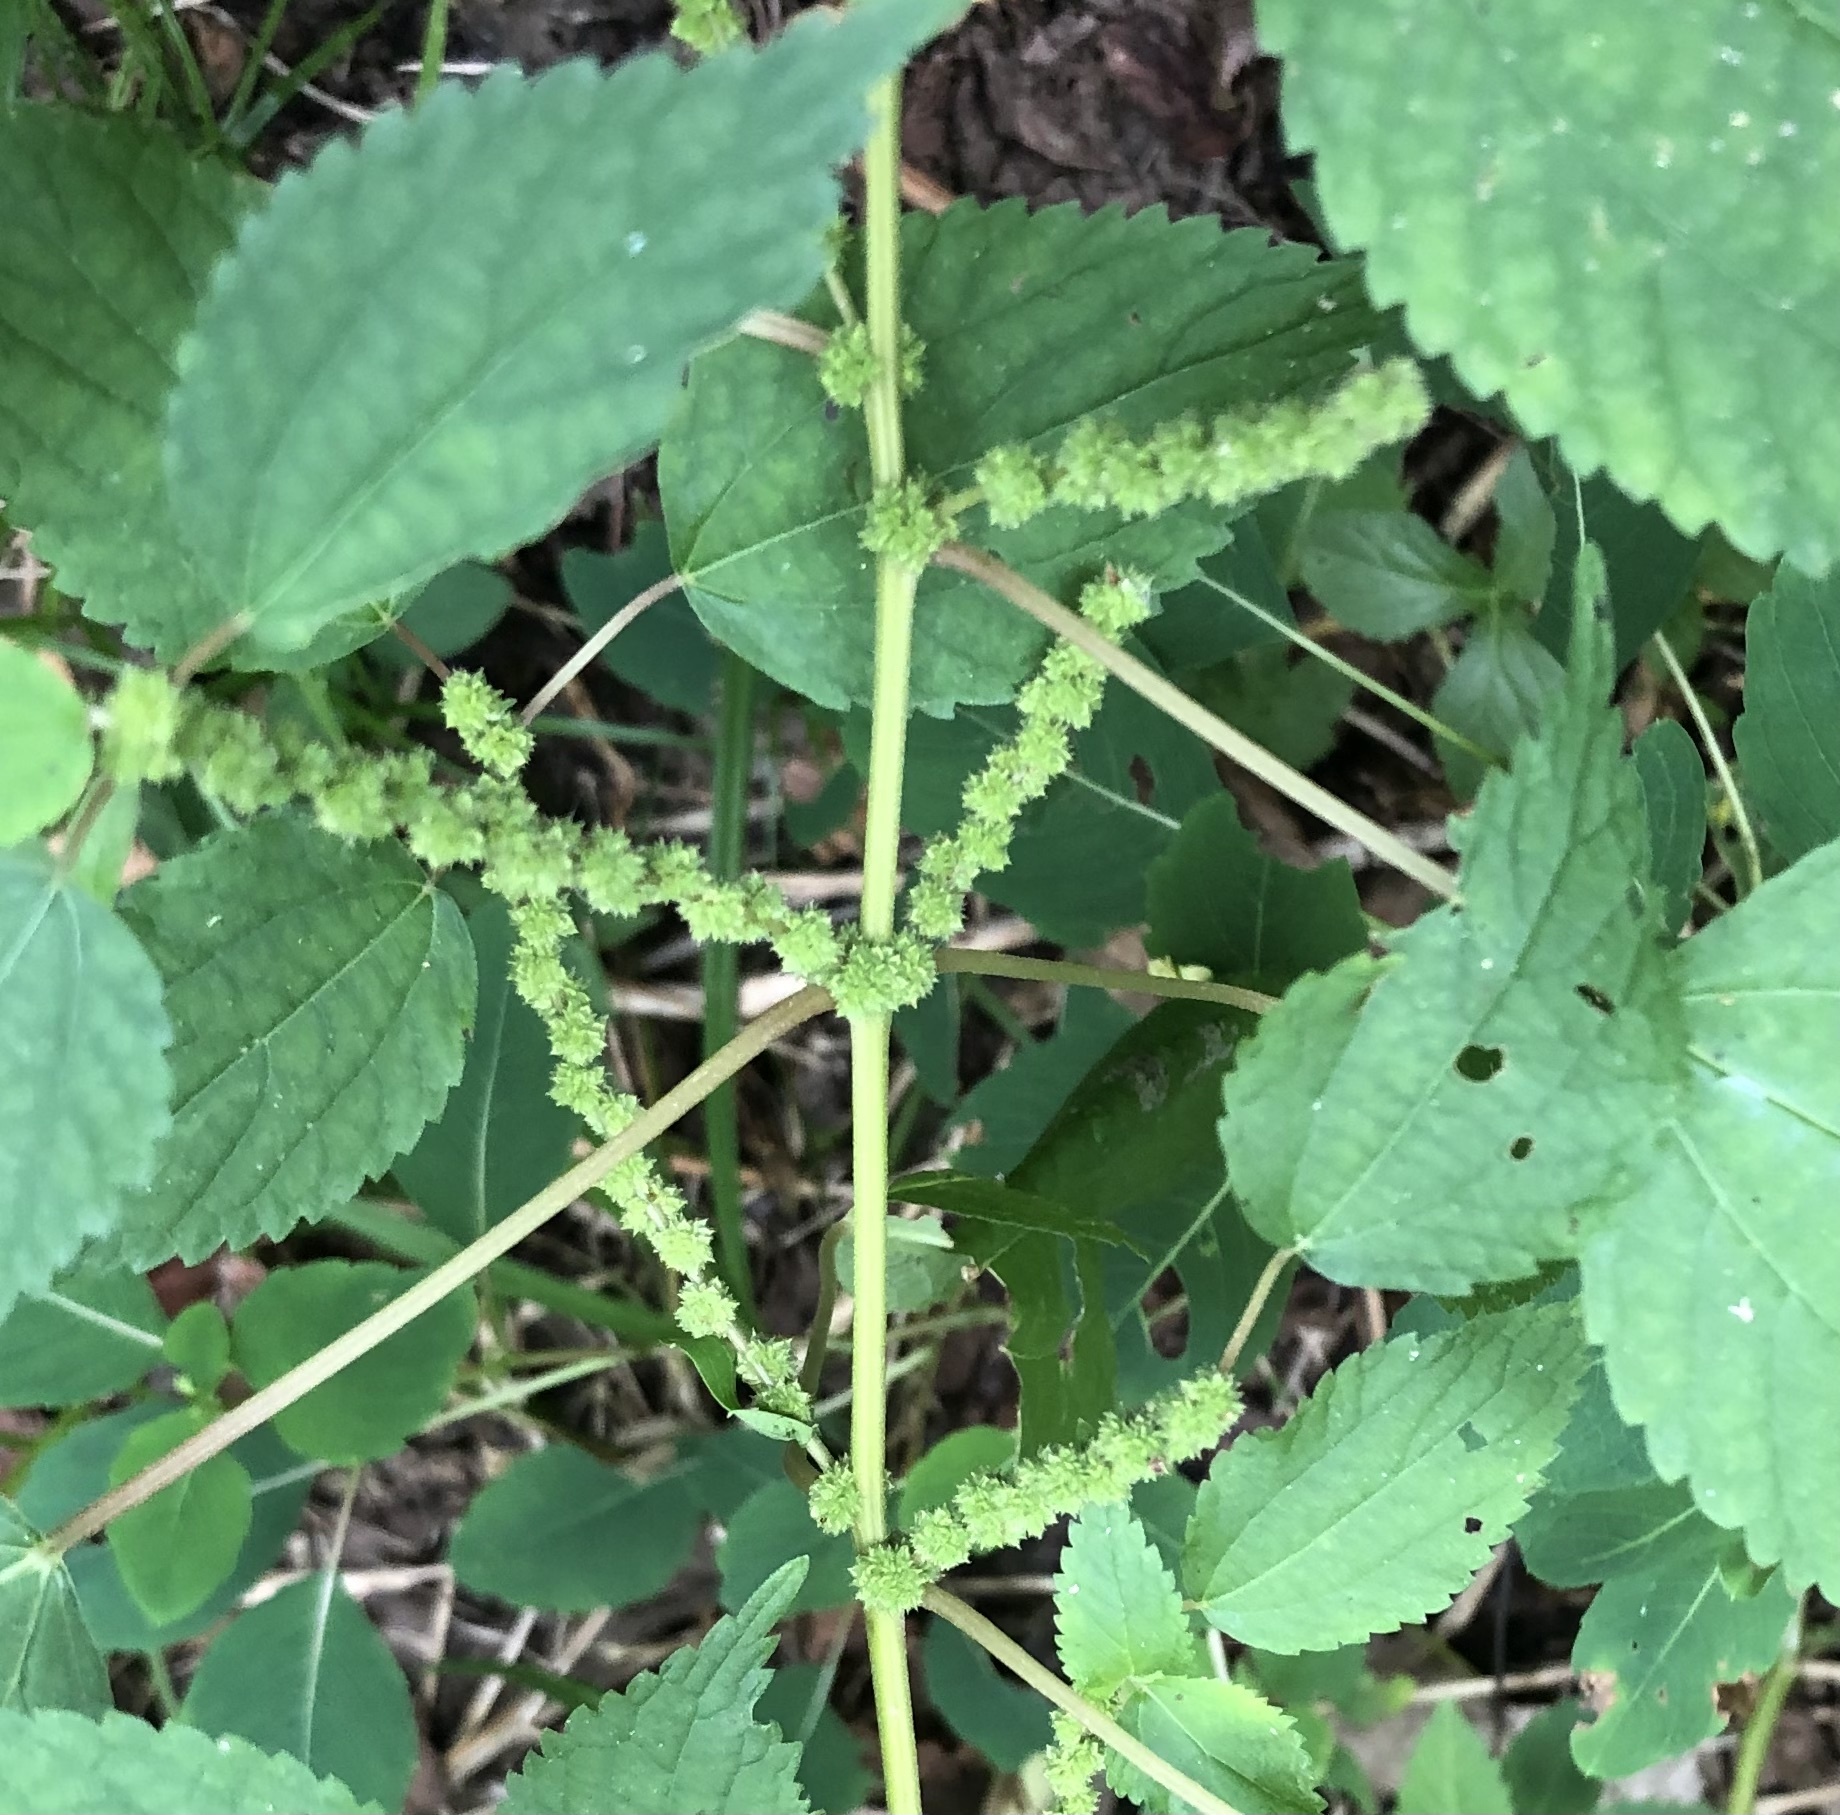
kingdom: Plantae
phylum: Tracheophyta
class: Magnoliopsida
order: Rosales
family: Urticaceae
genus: Boehmeria
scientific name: Boehmeria cylindrica
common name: Bog-hemp
